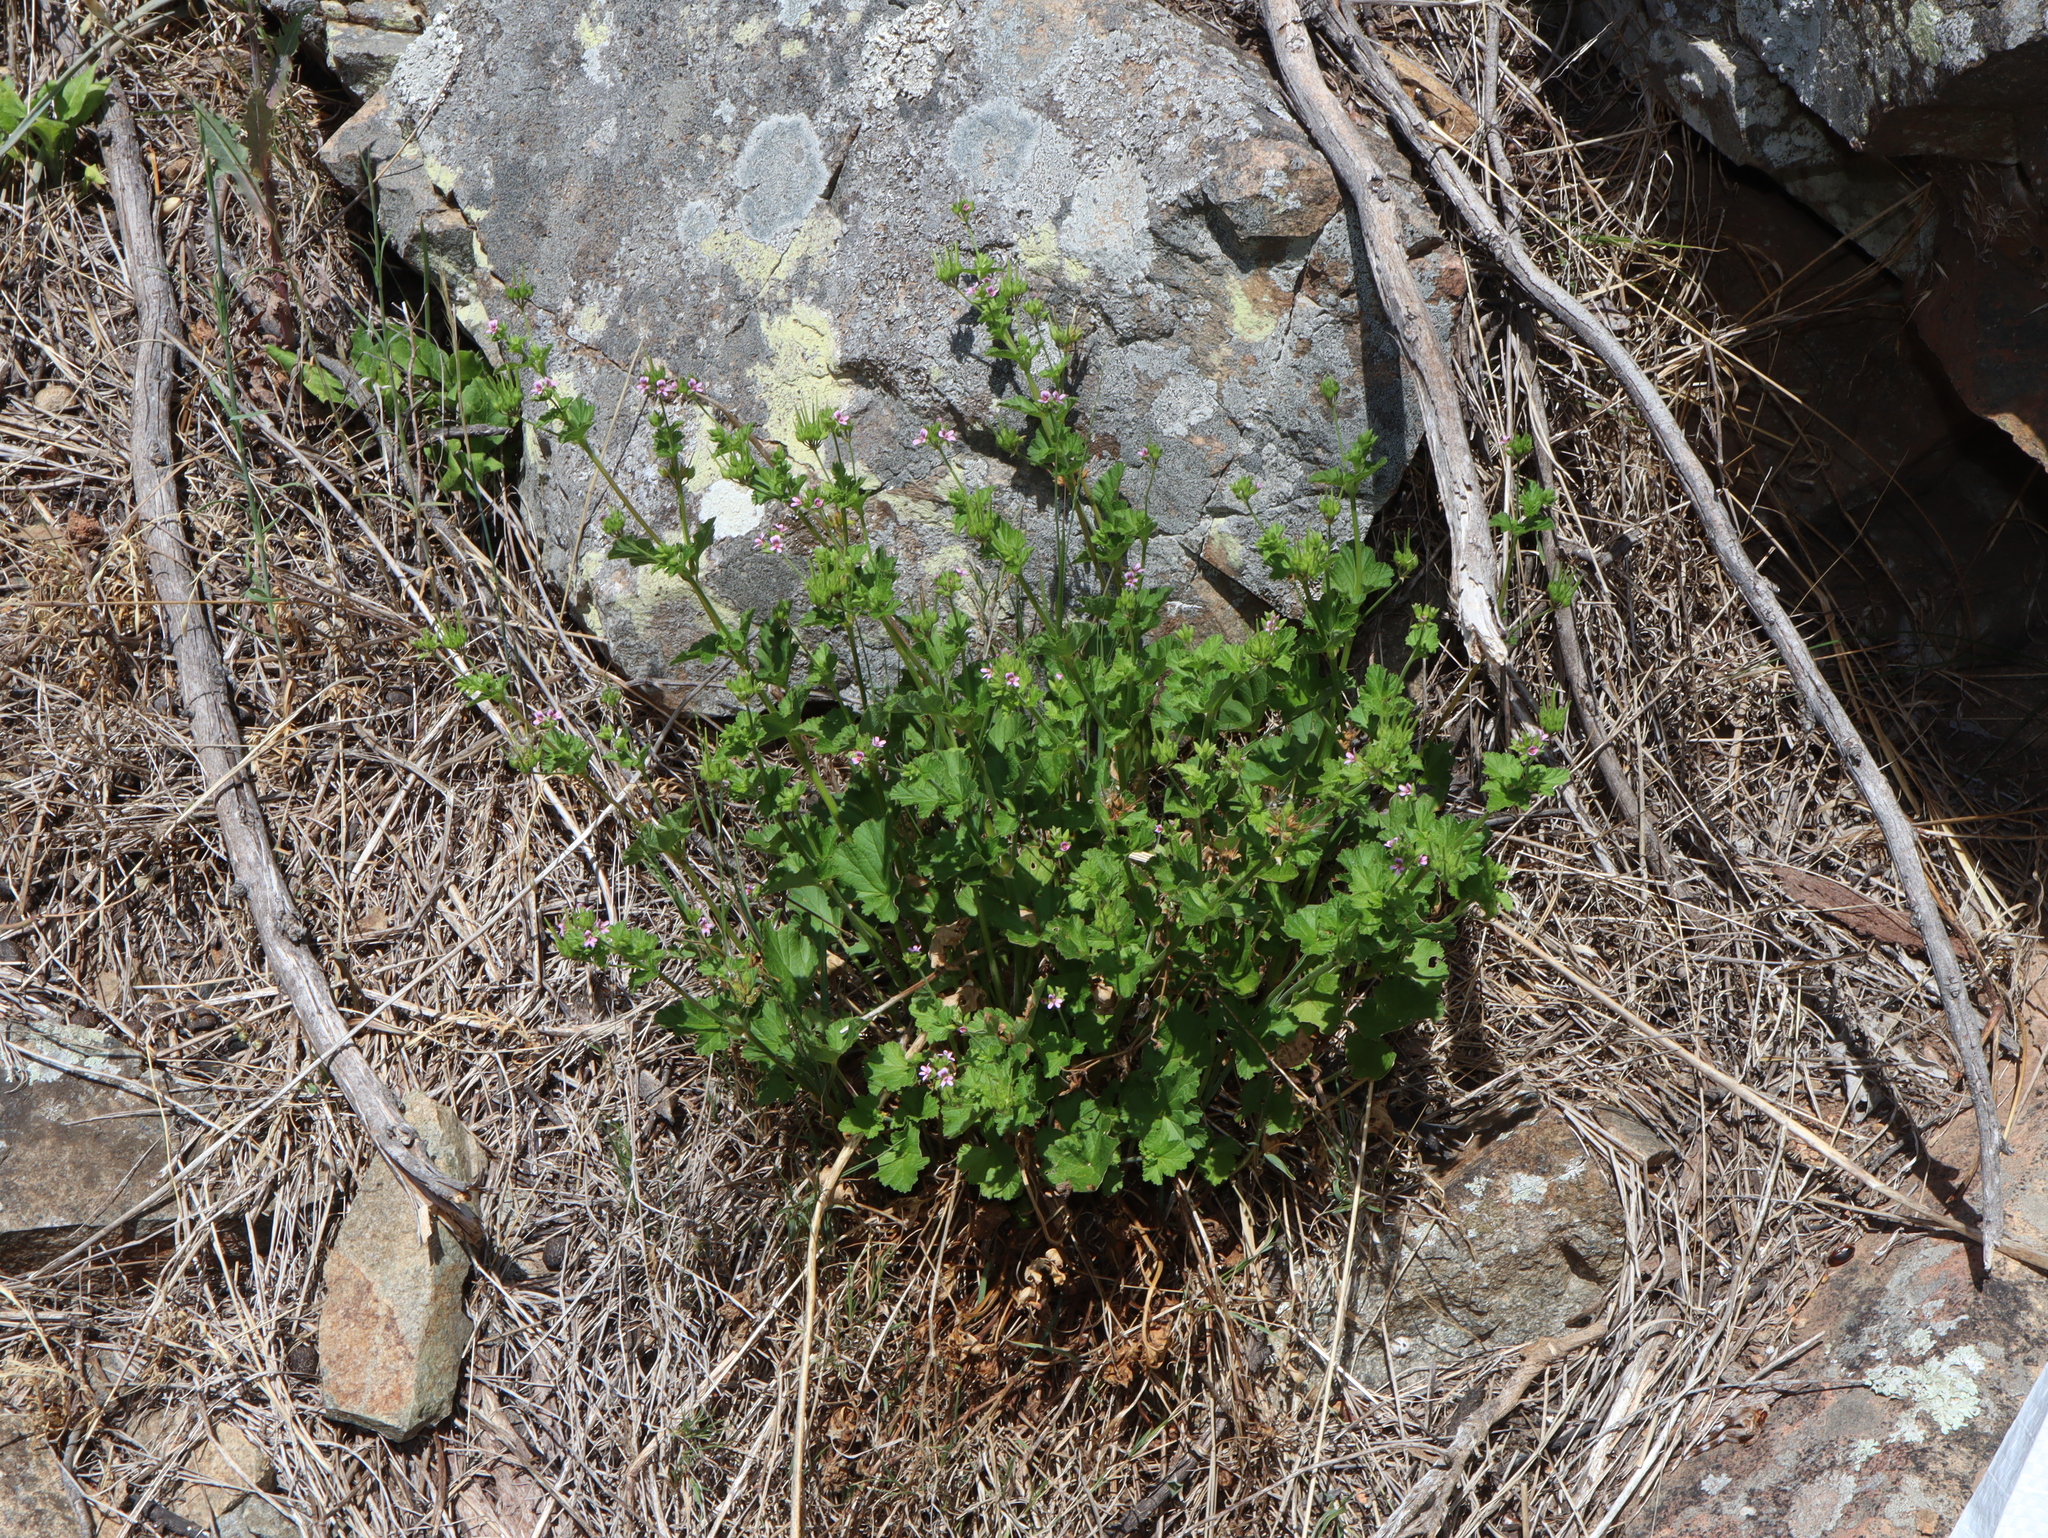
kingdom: Plantae
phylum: Tracheophyta
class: Magnoliopsida
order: Geraniales
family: Geraniaceae
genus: Pelargonium
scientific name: Pelargonium inodorum
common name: Kopata geranium
